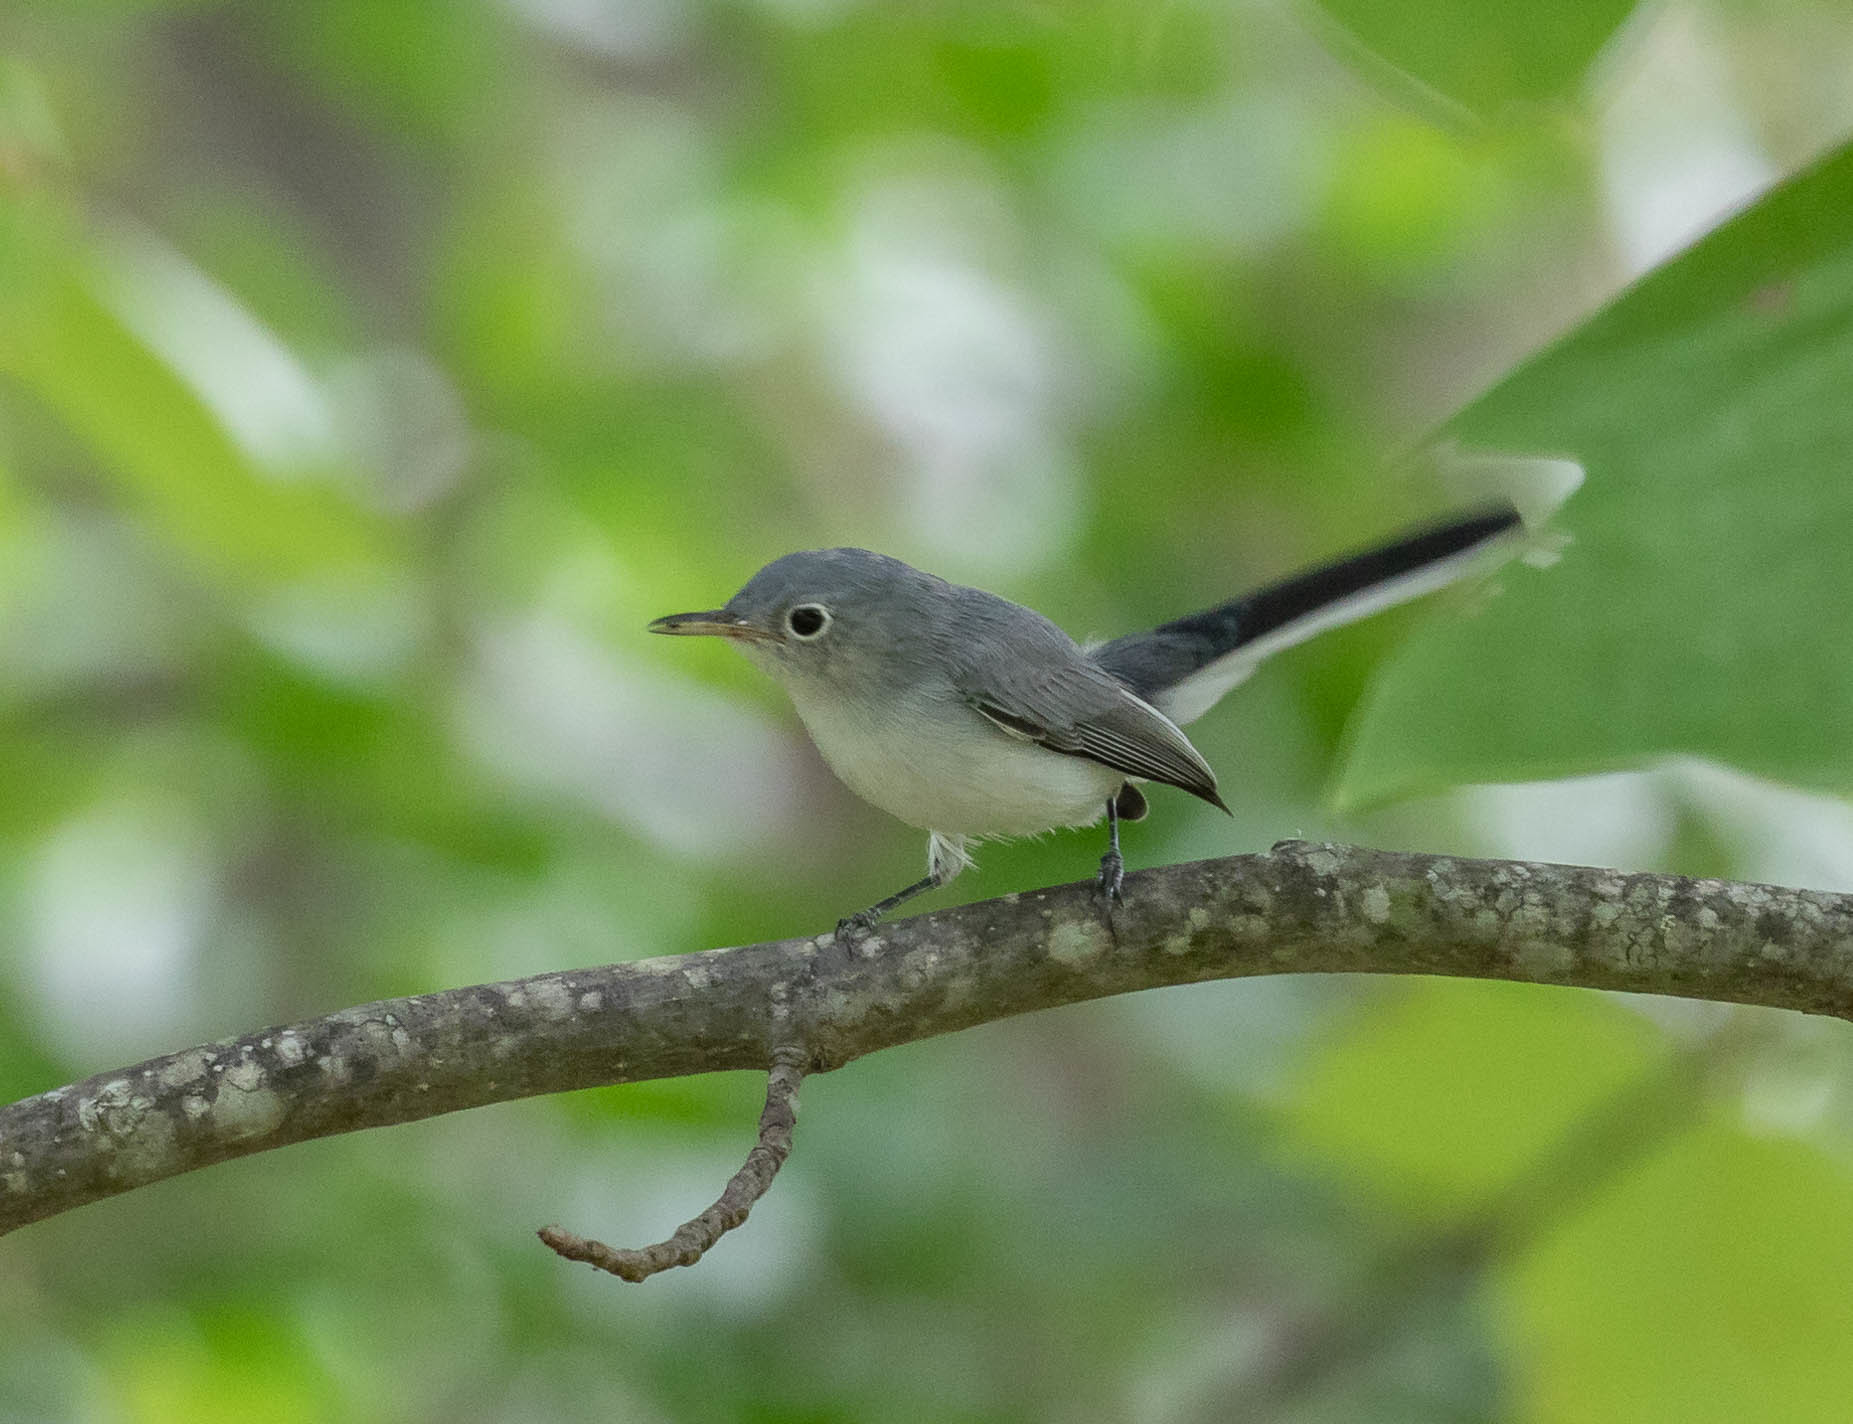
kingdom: Animalia
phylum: Chordata
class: Aves
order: Passeriformes
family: Polioptilidae
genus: Polioptila
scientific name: Polioptila caerulea
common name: Blue-gray gnatcatcher
